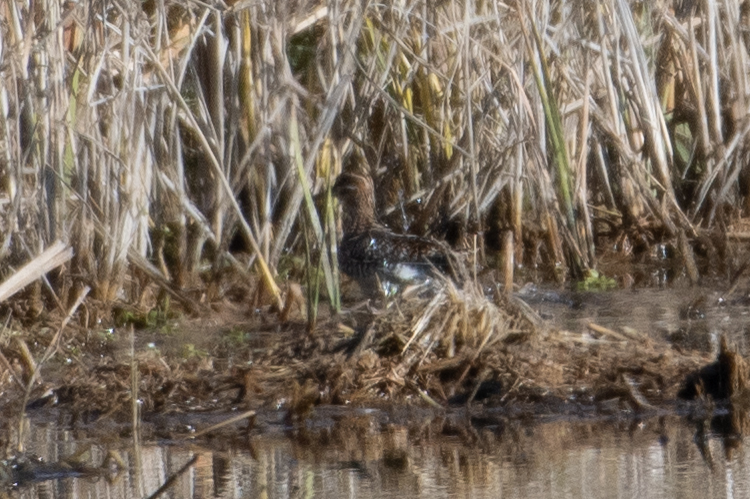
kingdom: Animalia
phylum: Chordata
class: Aves
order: Charadriiformes
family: Scolopacidae
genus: Gallinago
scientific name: Gallinago delicata
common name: Wilson's snipe
